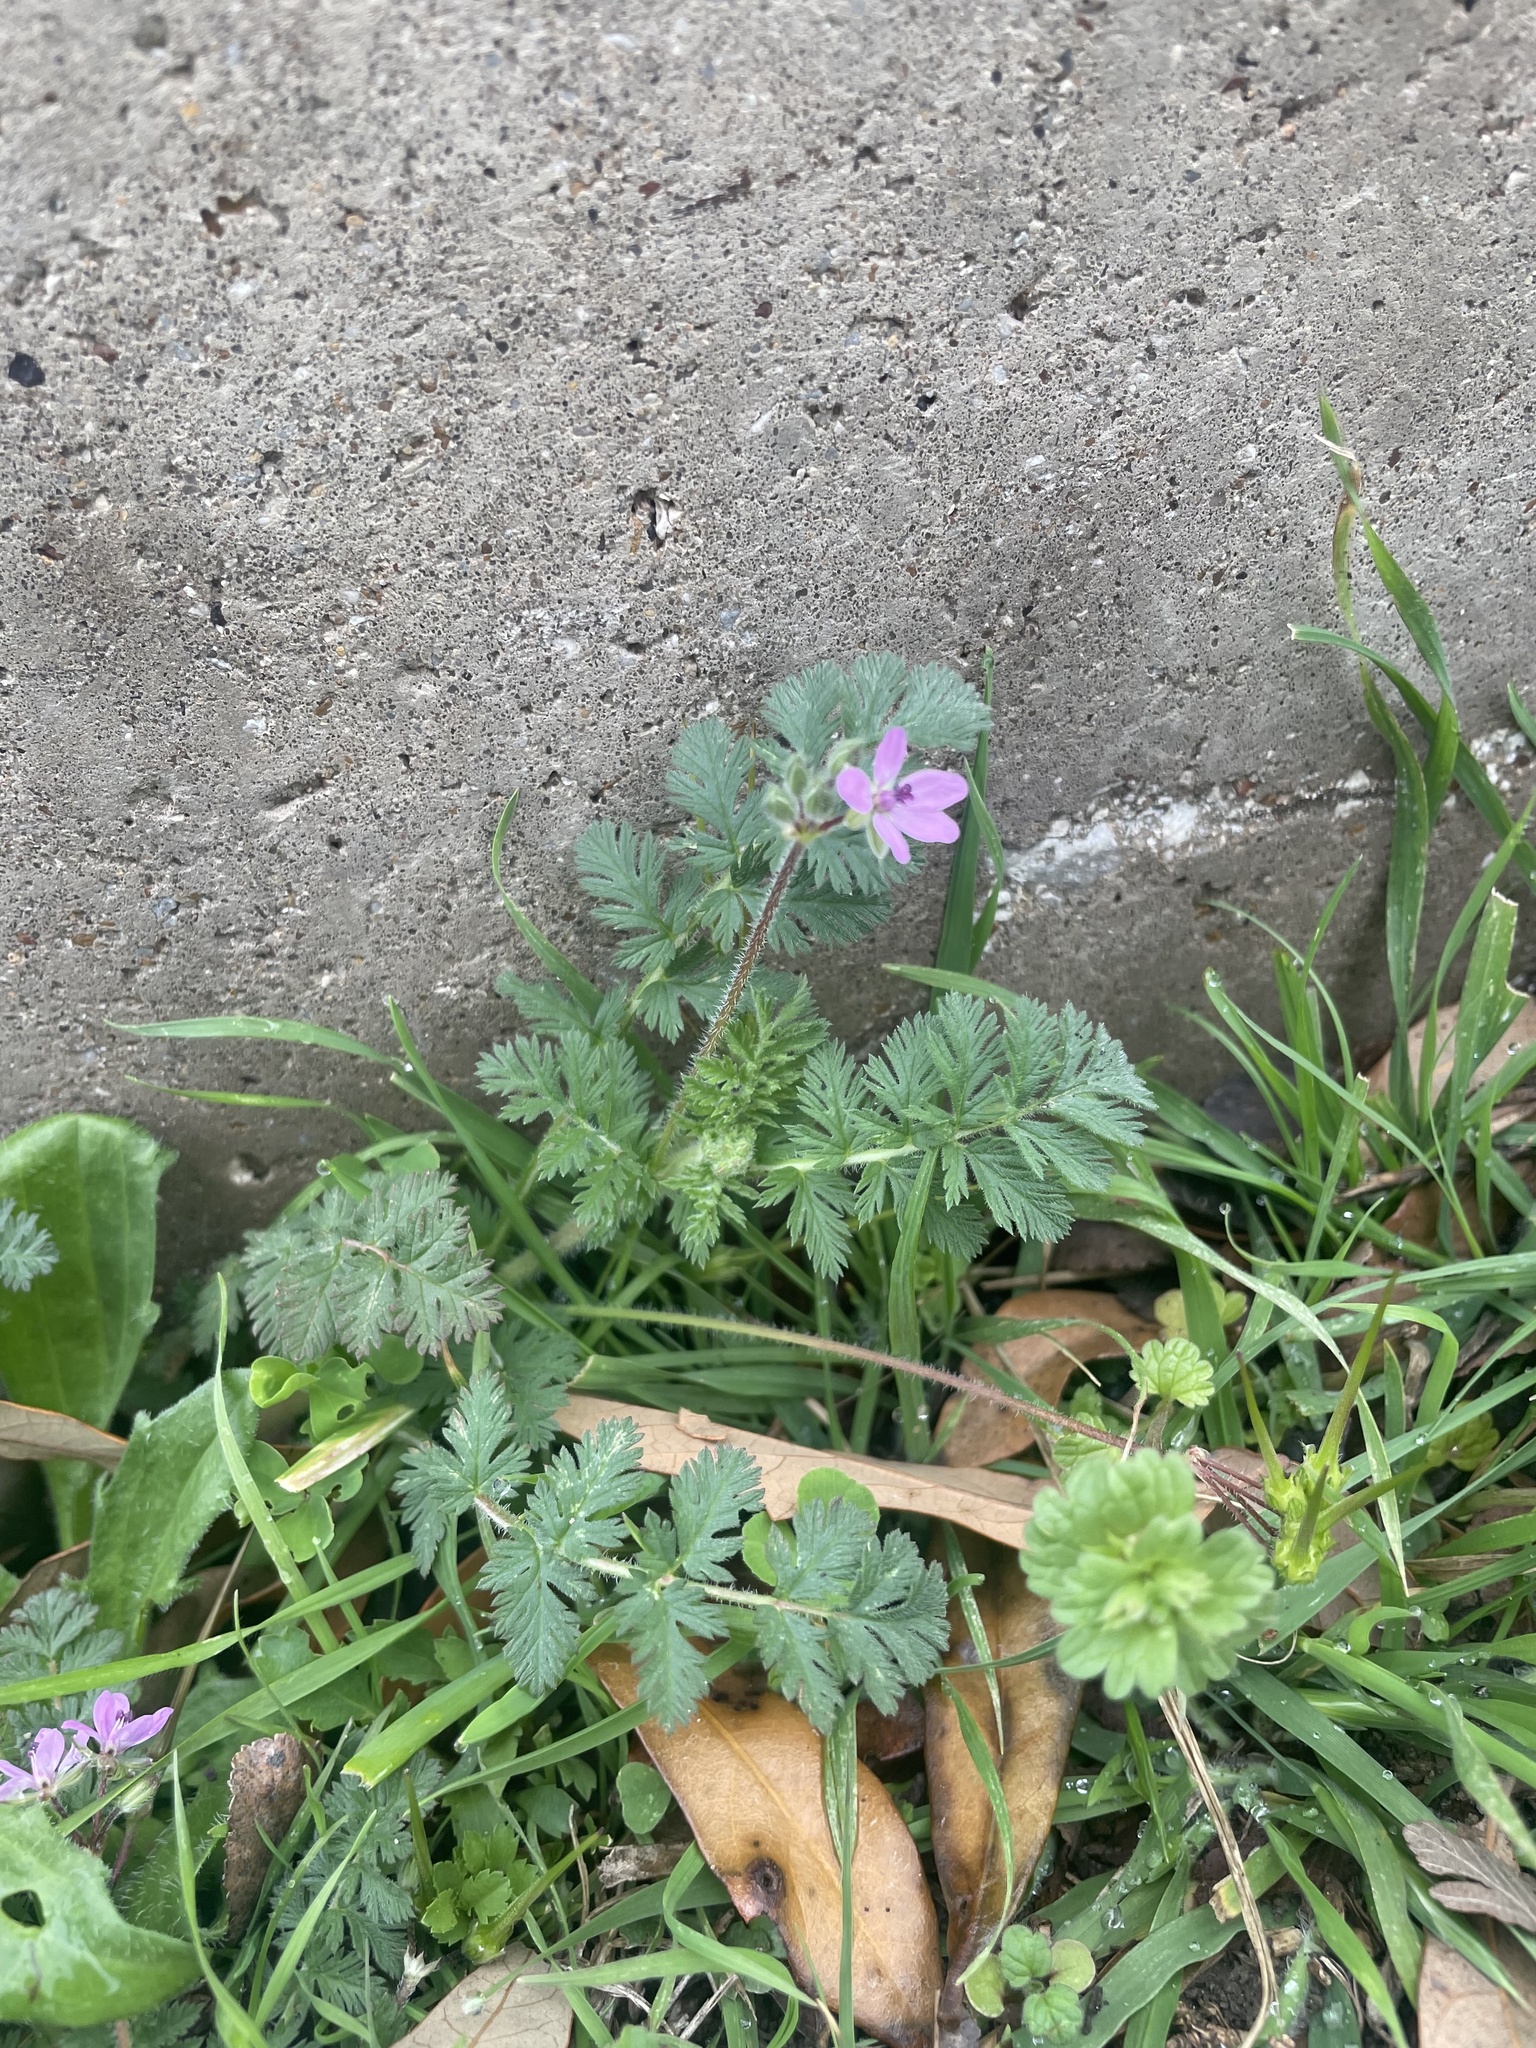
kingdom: Plantae
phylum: Tracheophyta
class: Magnoliopsida
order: Geraniales
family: Geraniaceae
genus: Erodium
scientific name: Erodium cicutarium
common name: Common stork's-bill
